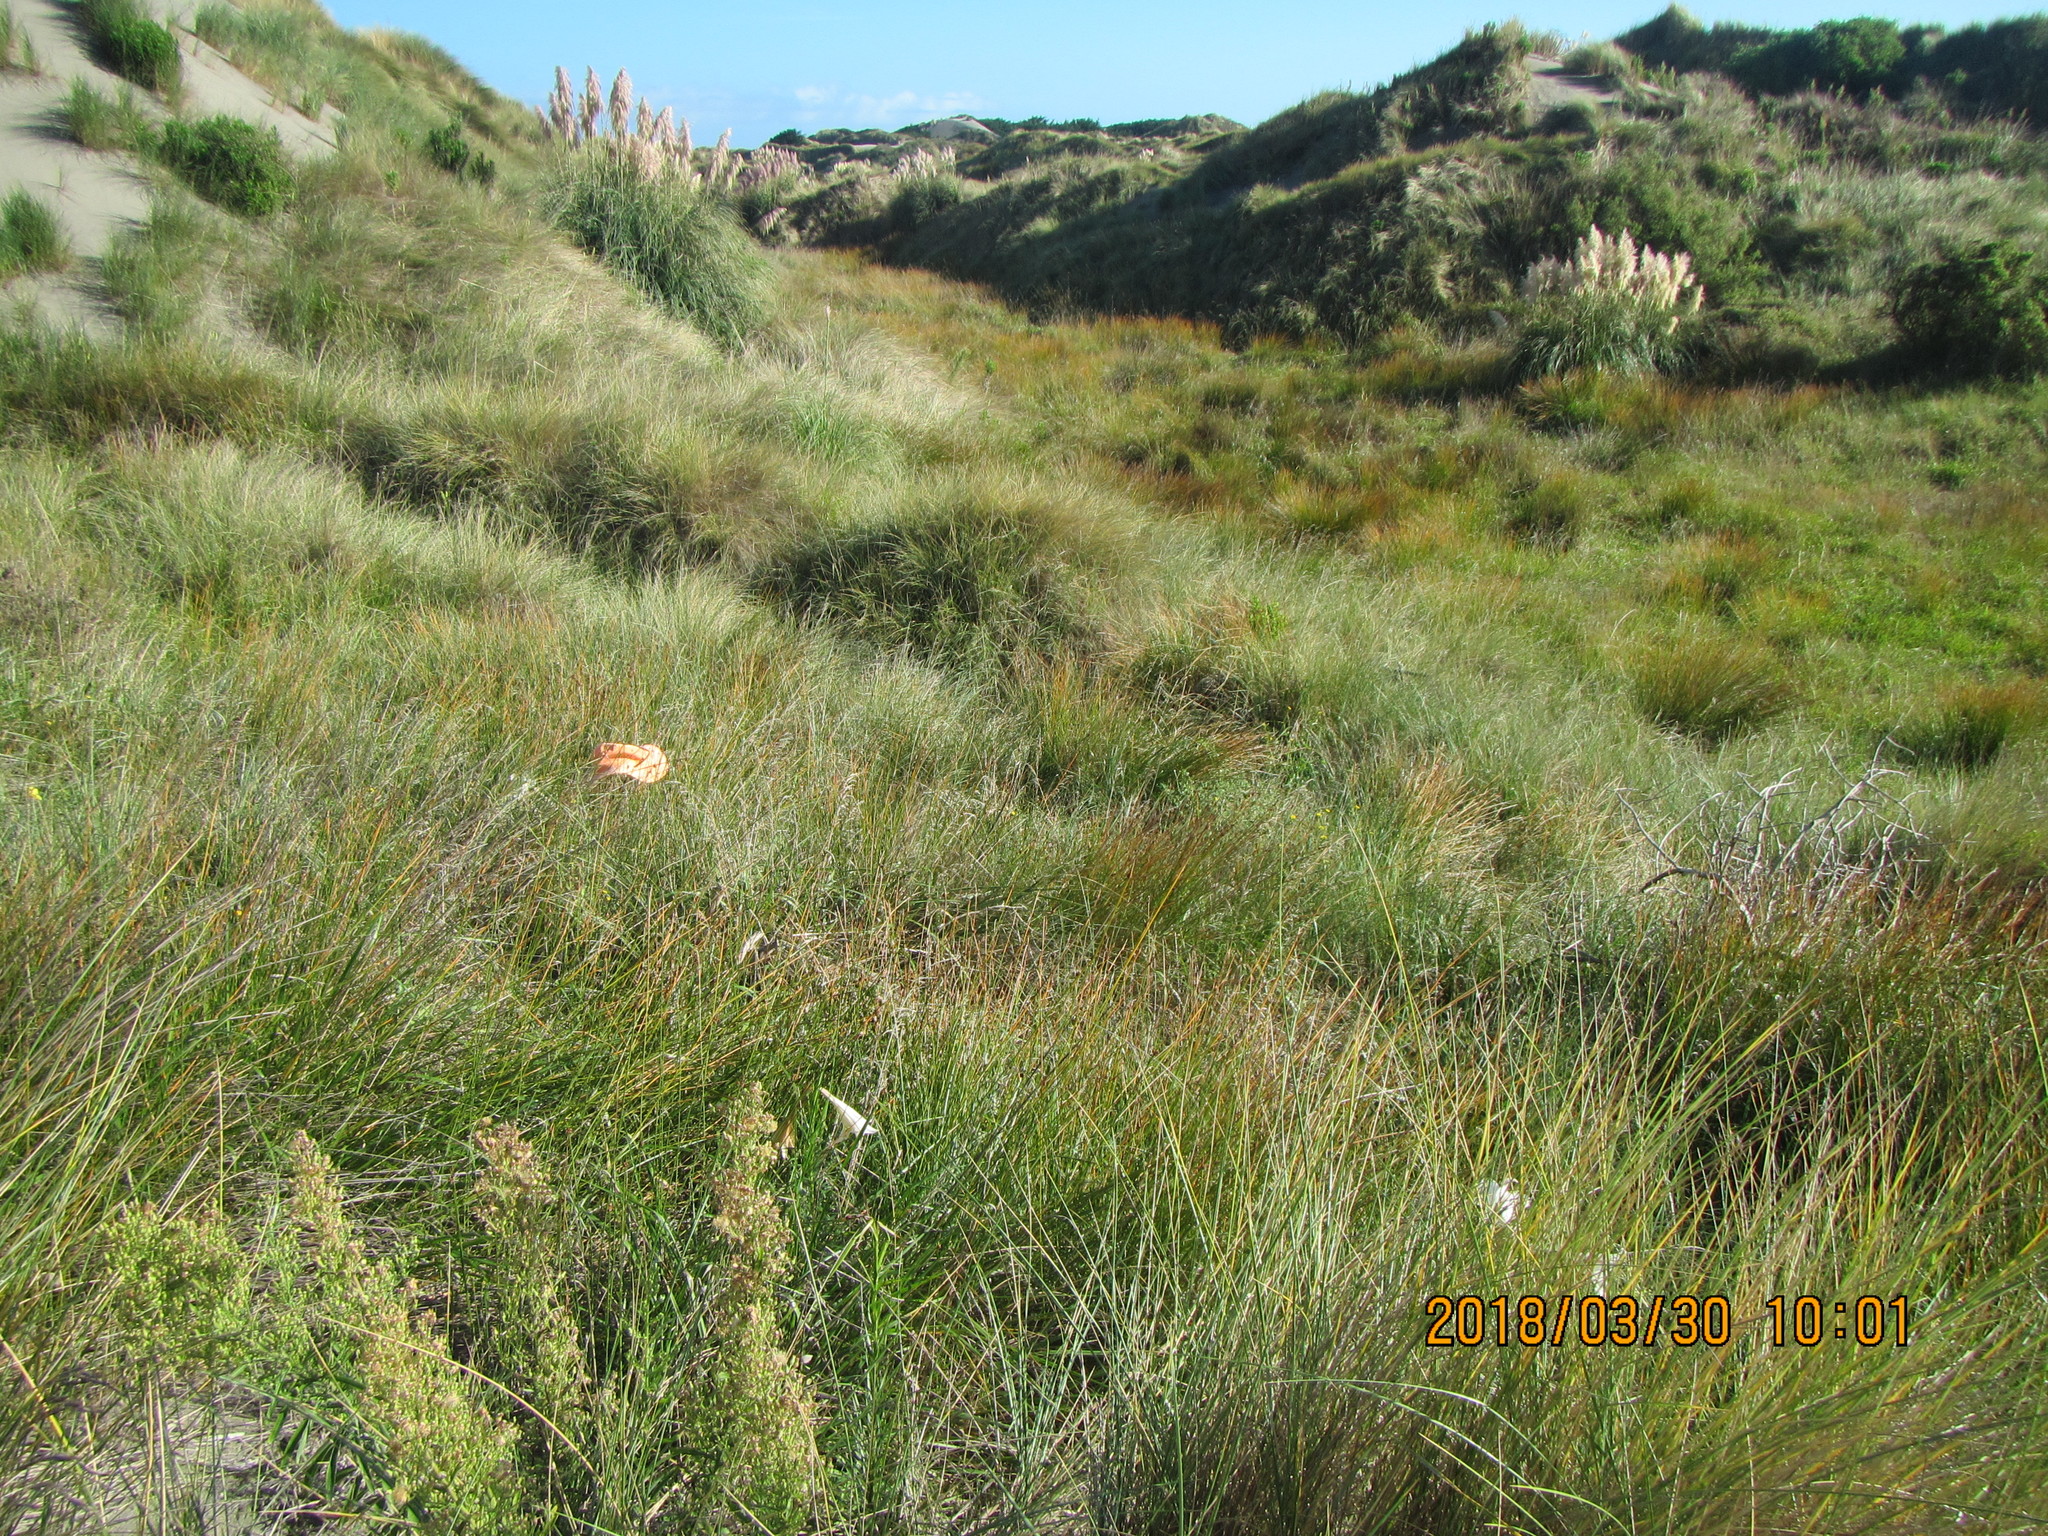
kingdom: Plantae
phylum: Tracheophyta
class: Liliopsida
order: Liliales
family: Liliaceae
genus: Lilium
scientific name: Lilium formosanum
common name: Formosa lily
